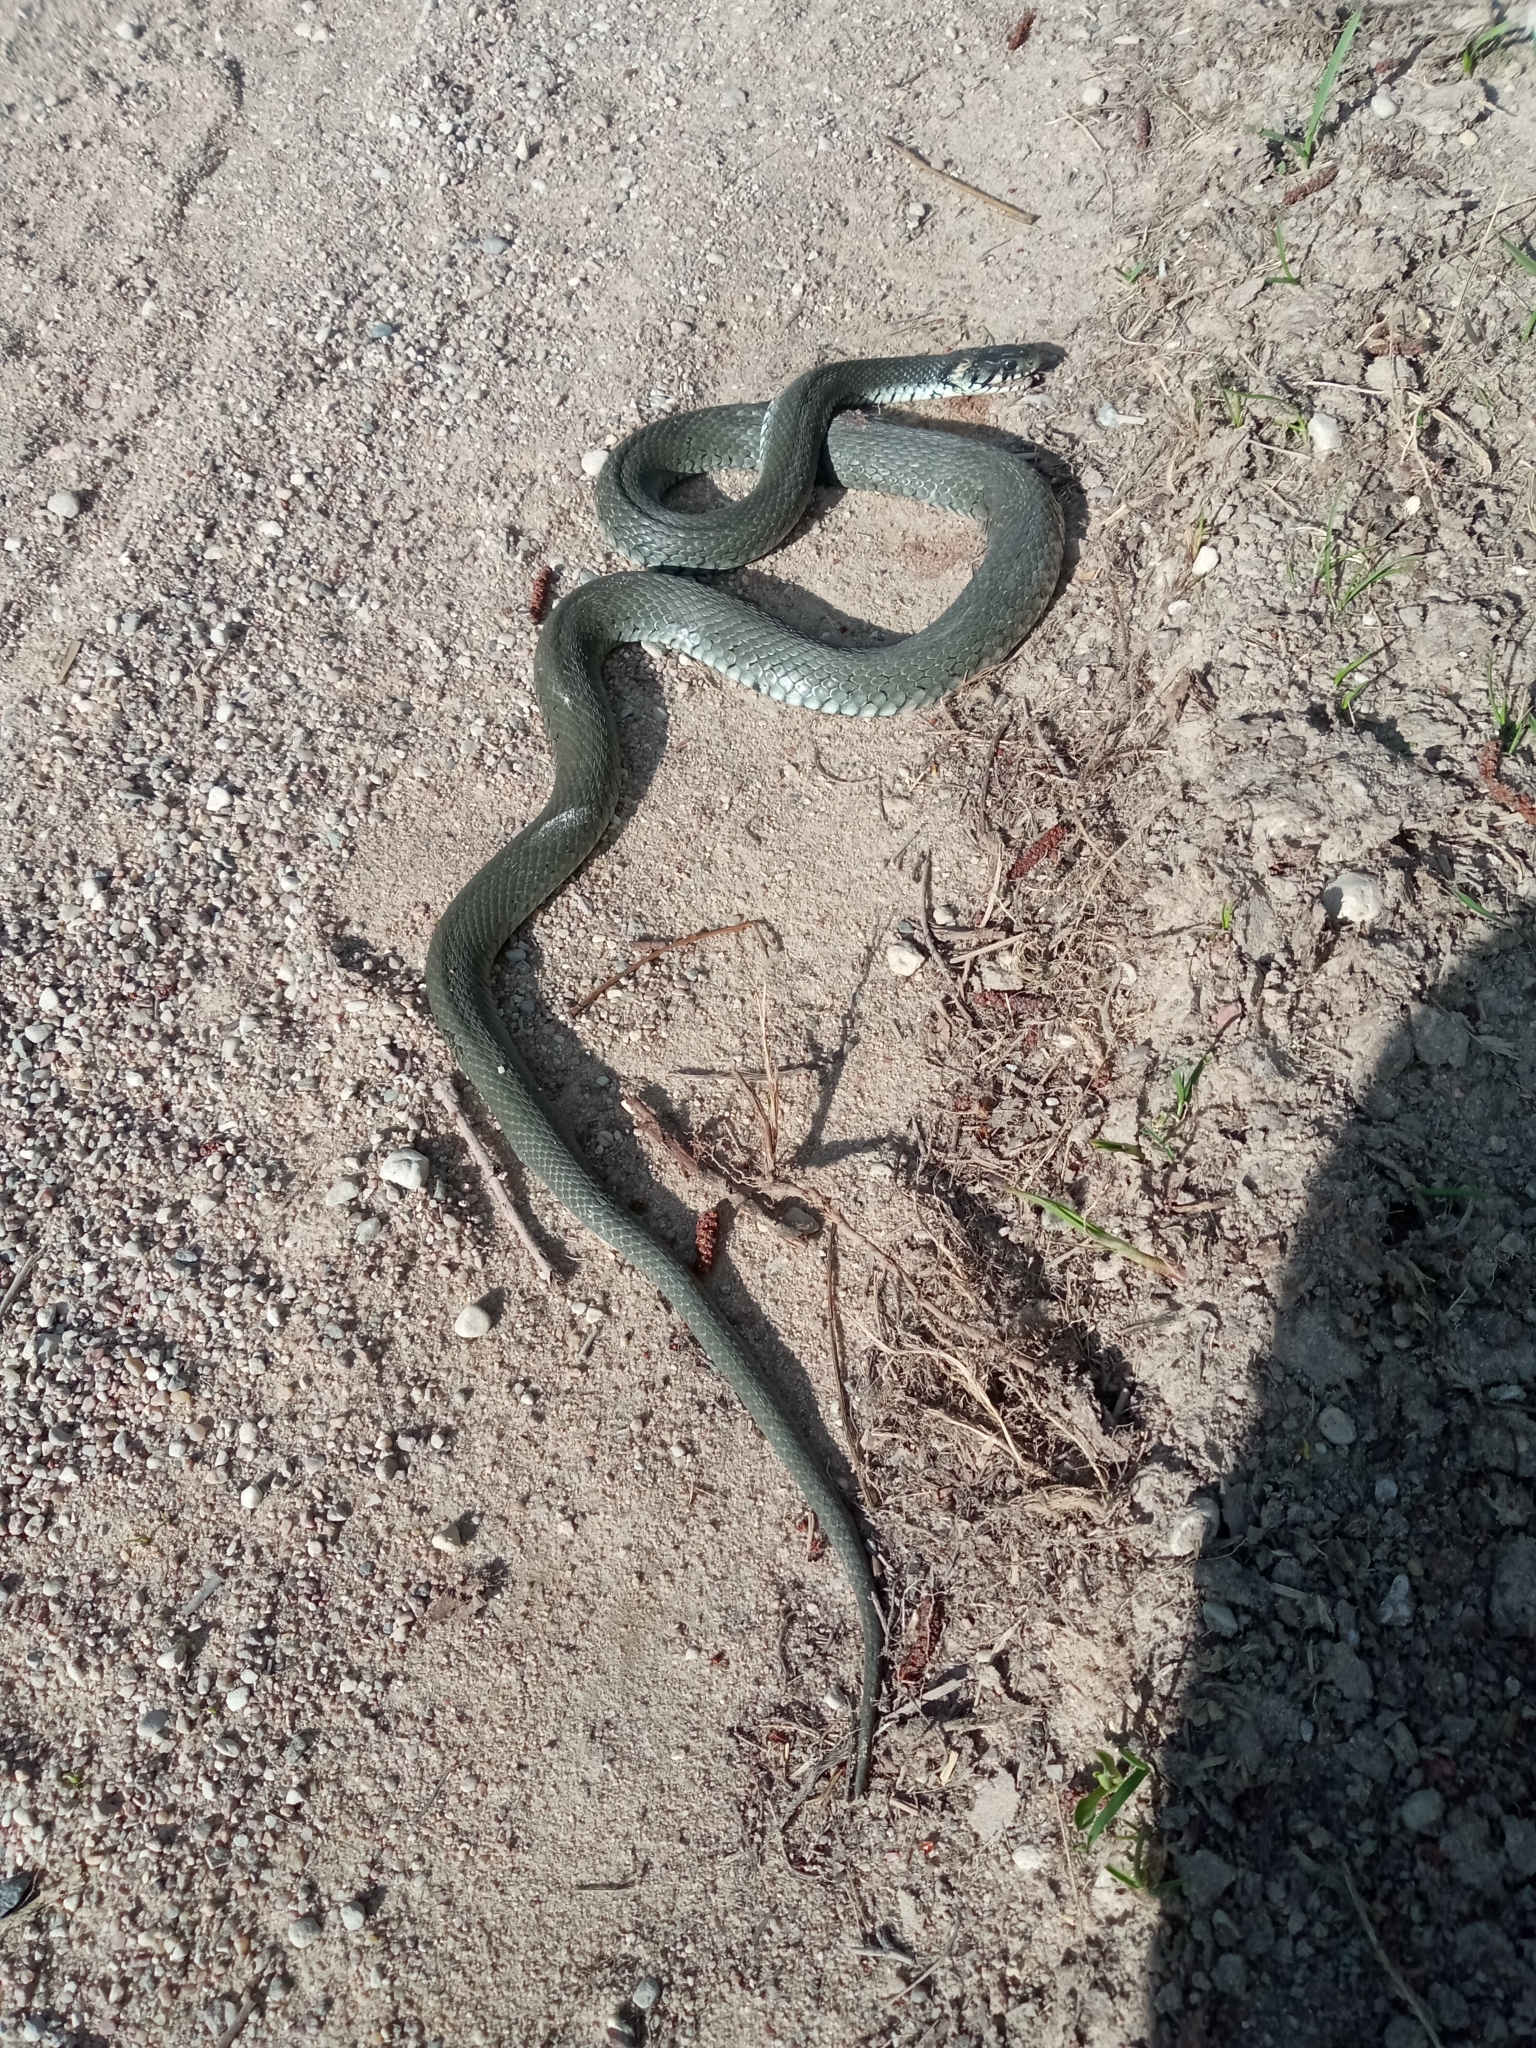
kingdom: Animalia
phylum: Chordata
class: Squamata
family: Colubridae
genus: Natrix
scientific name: Natrix natrix
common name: Grass snake
